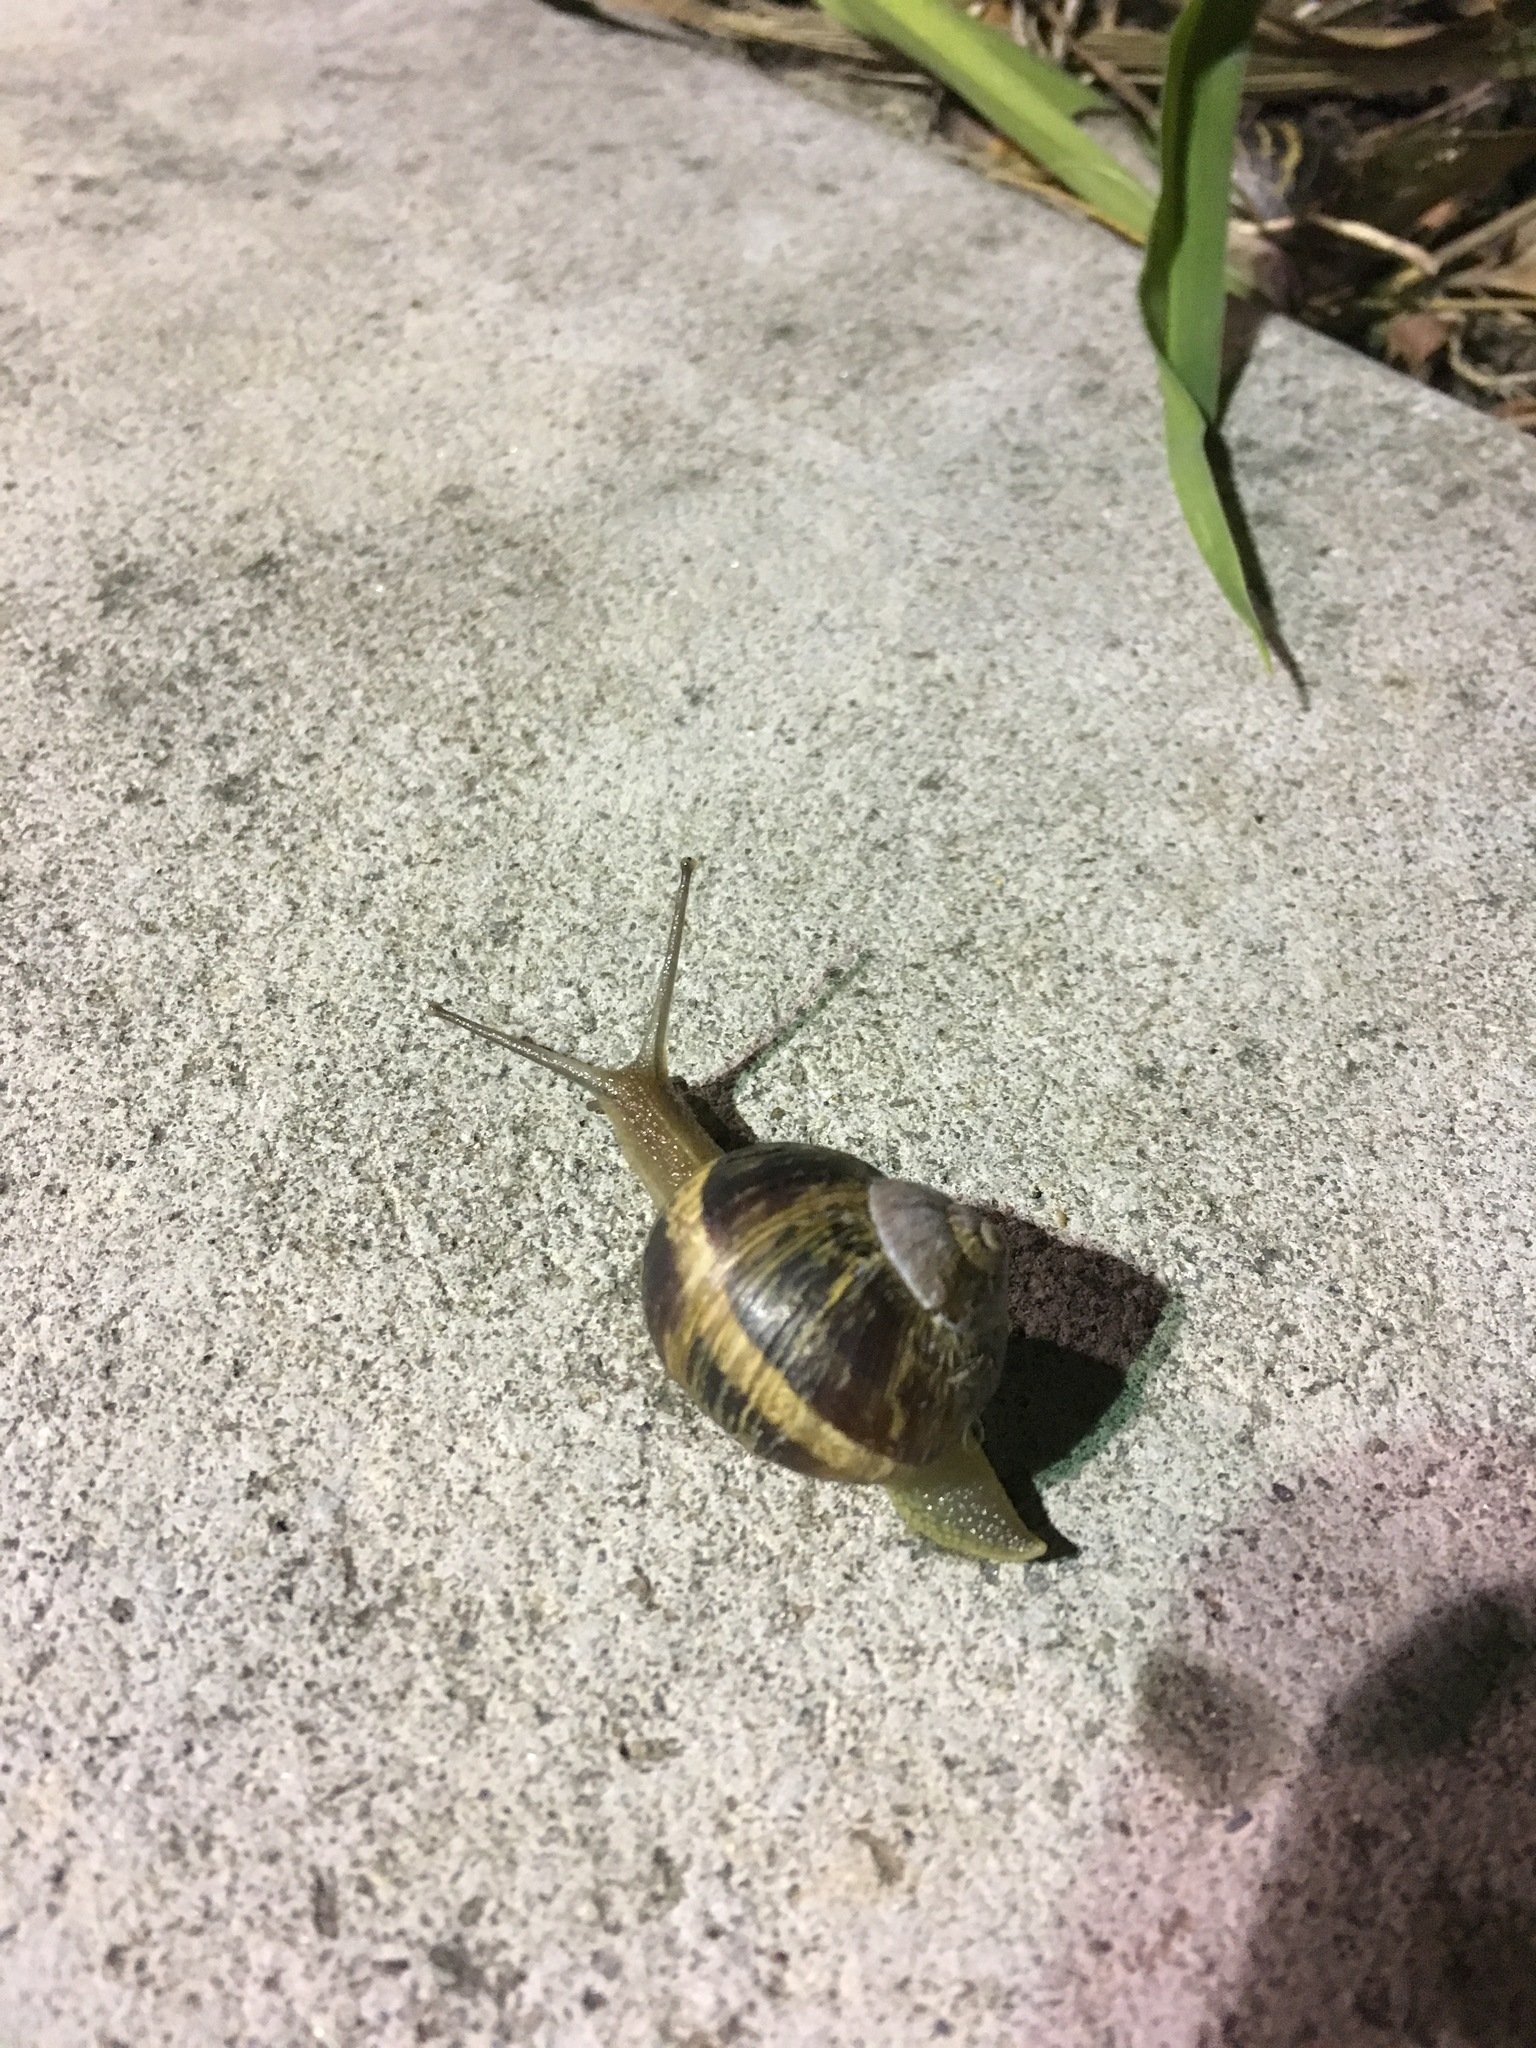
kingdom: Animalia
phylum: Mollusca
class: Gastropoda
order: Stylommatophora
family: Helicidae
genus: Cornu
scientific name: Cornu aspersum
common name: Brown garden snail
